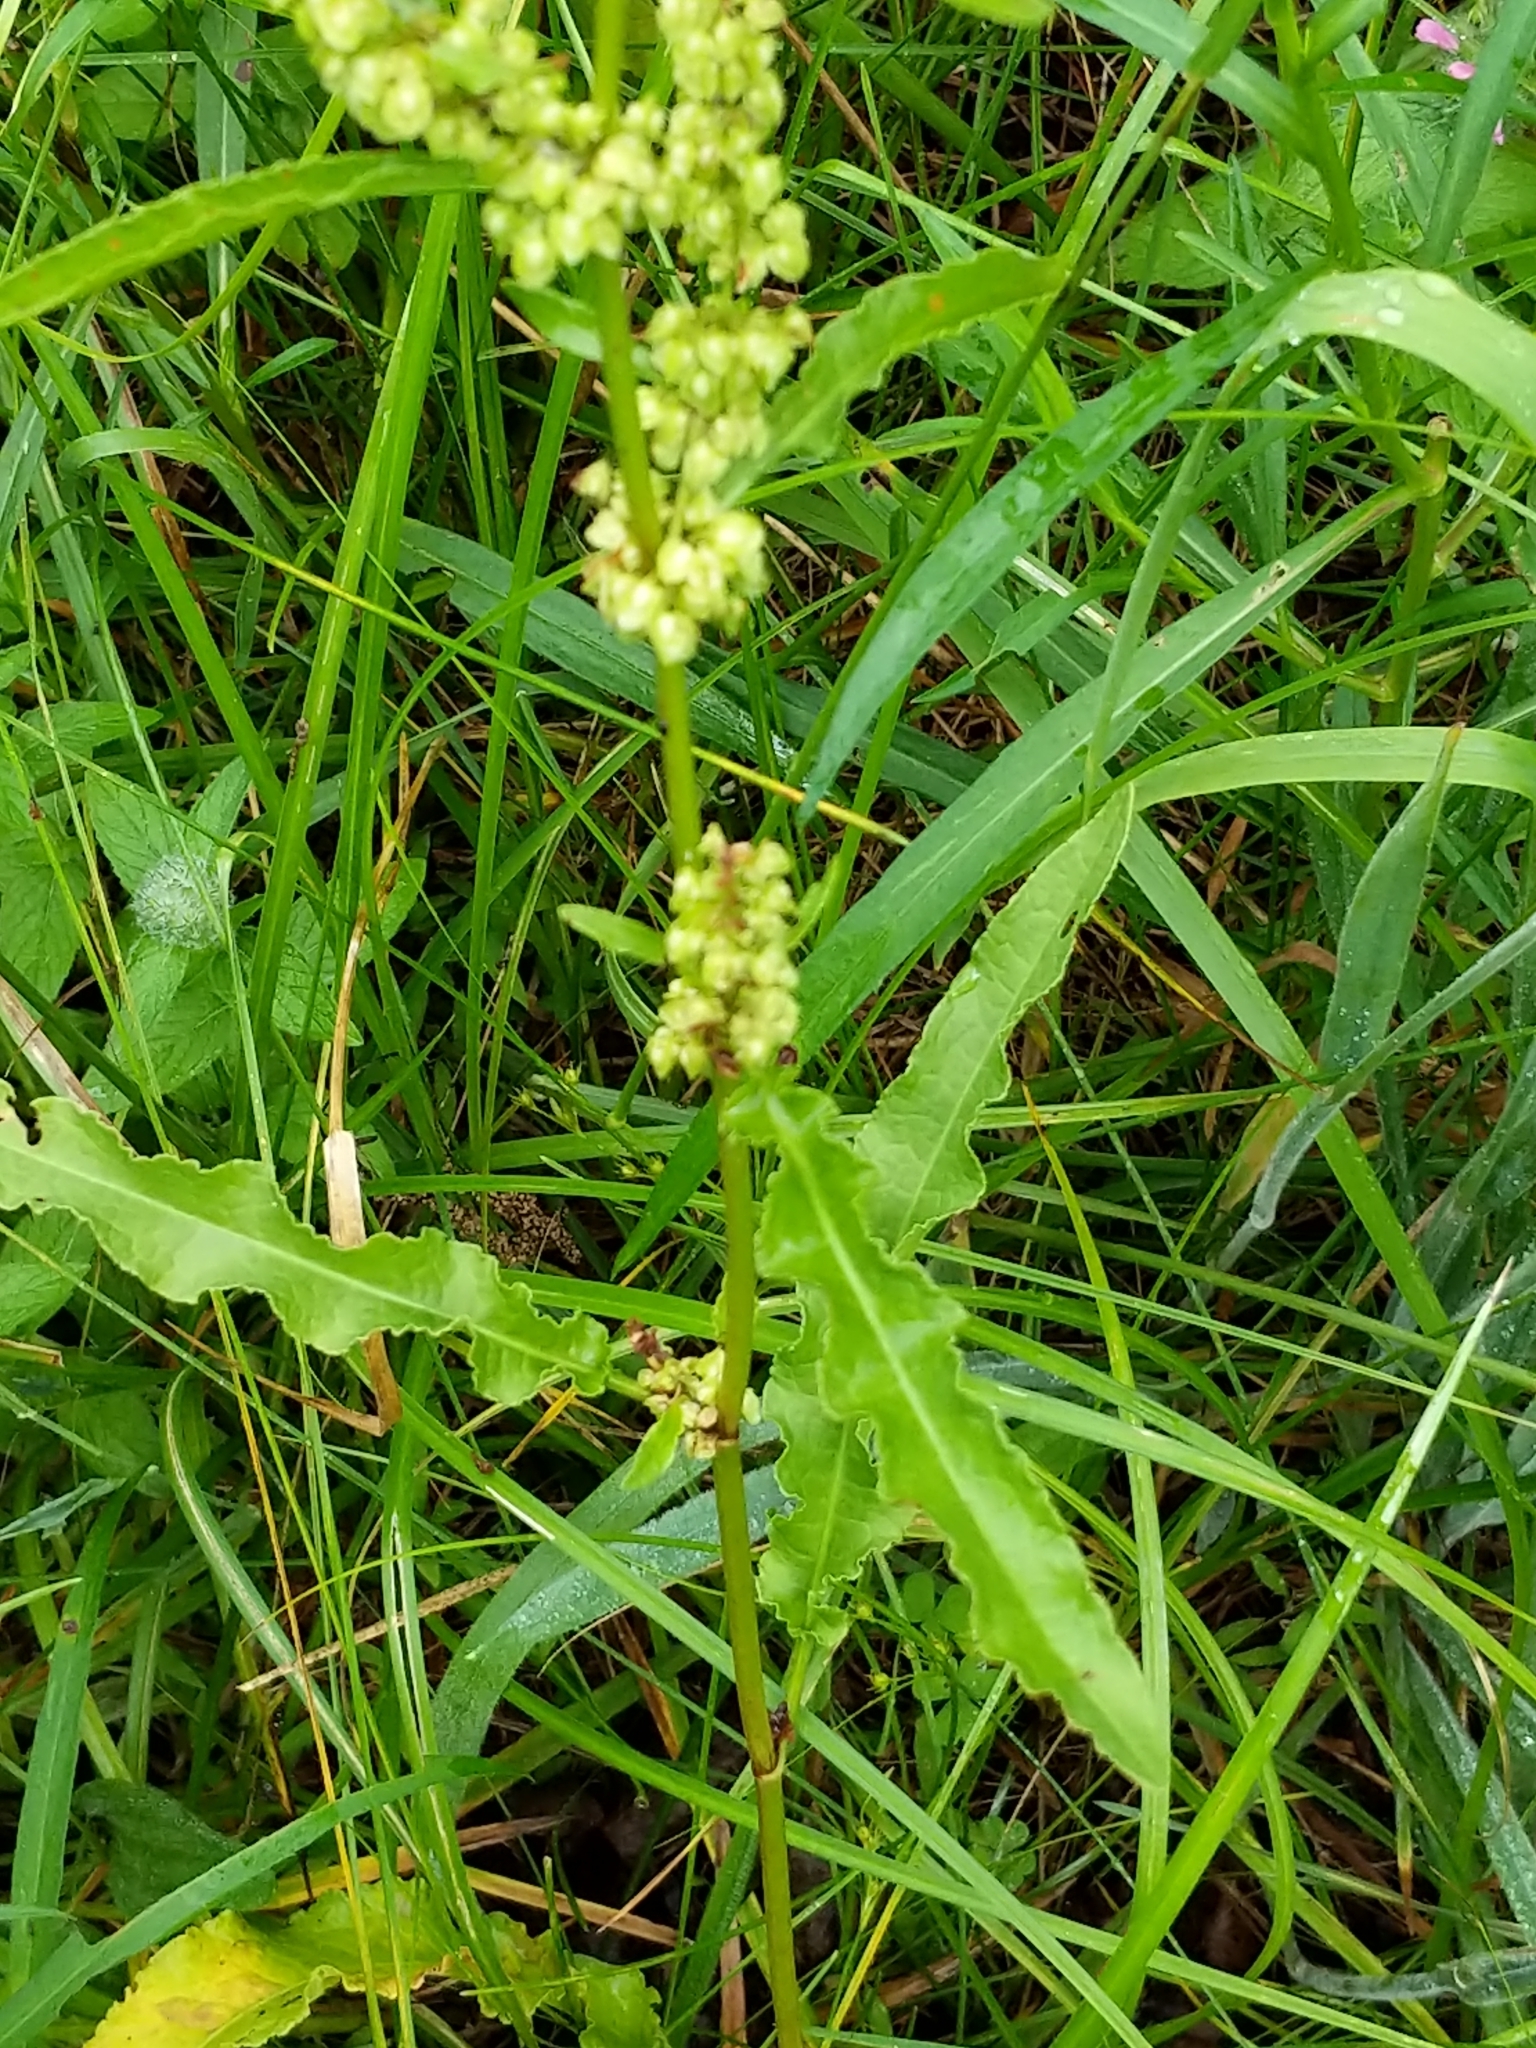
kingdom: Plantae
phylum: Tracheophyta
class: Magnoliopsida
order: Caryophyllales
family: Polygonaceae
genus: Rumex
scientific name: Rumex crispus
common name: Curled dock
